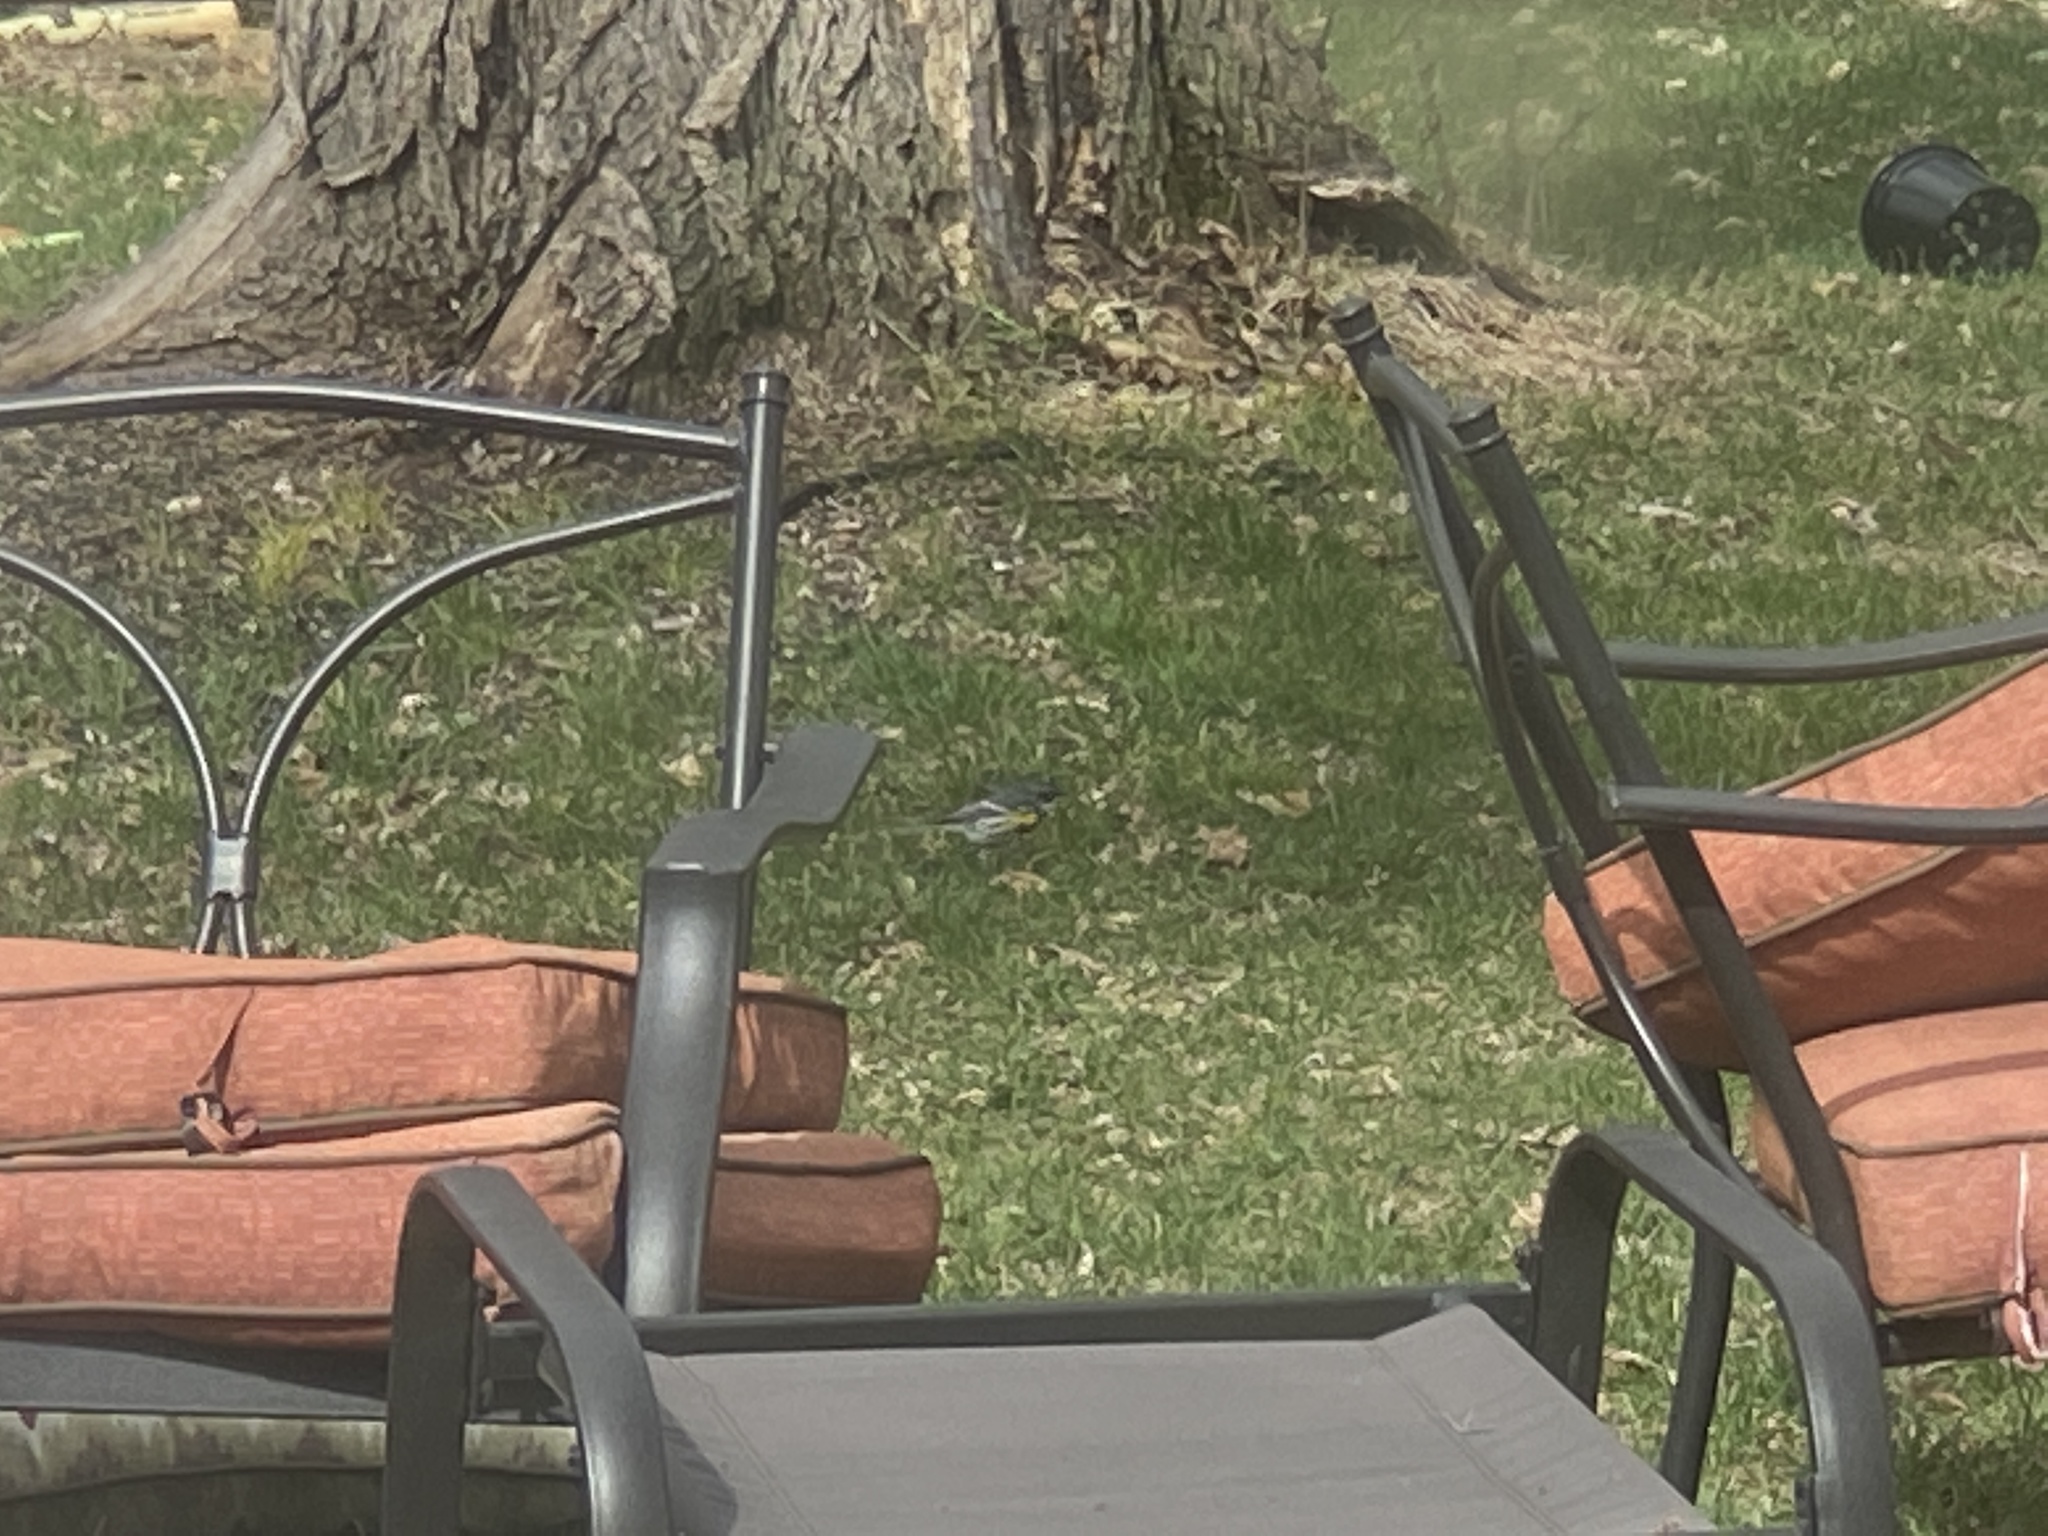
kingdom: Animalia
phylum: Chordata
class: Aves
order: Passeriformes
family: Parulidae
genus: Setophaga
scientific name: Setophaga coronata
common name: Myrtle warbler
